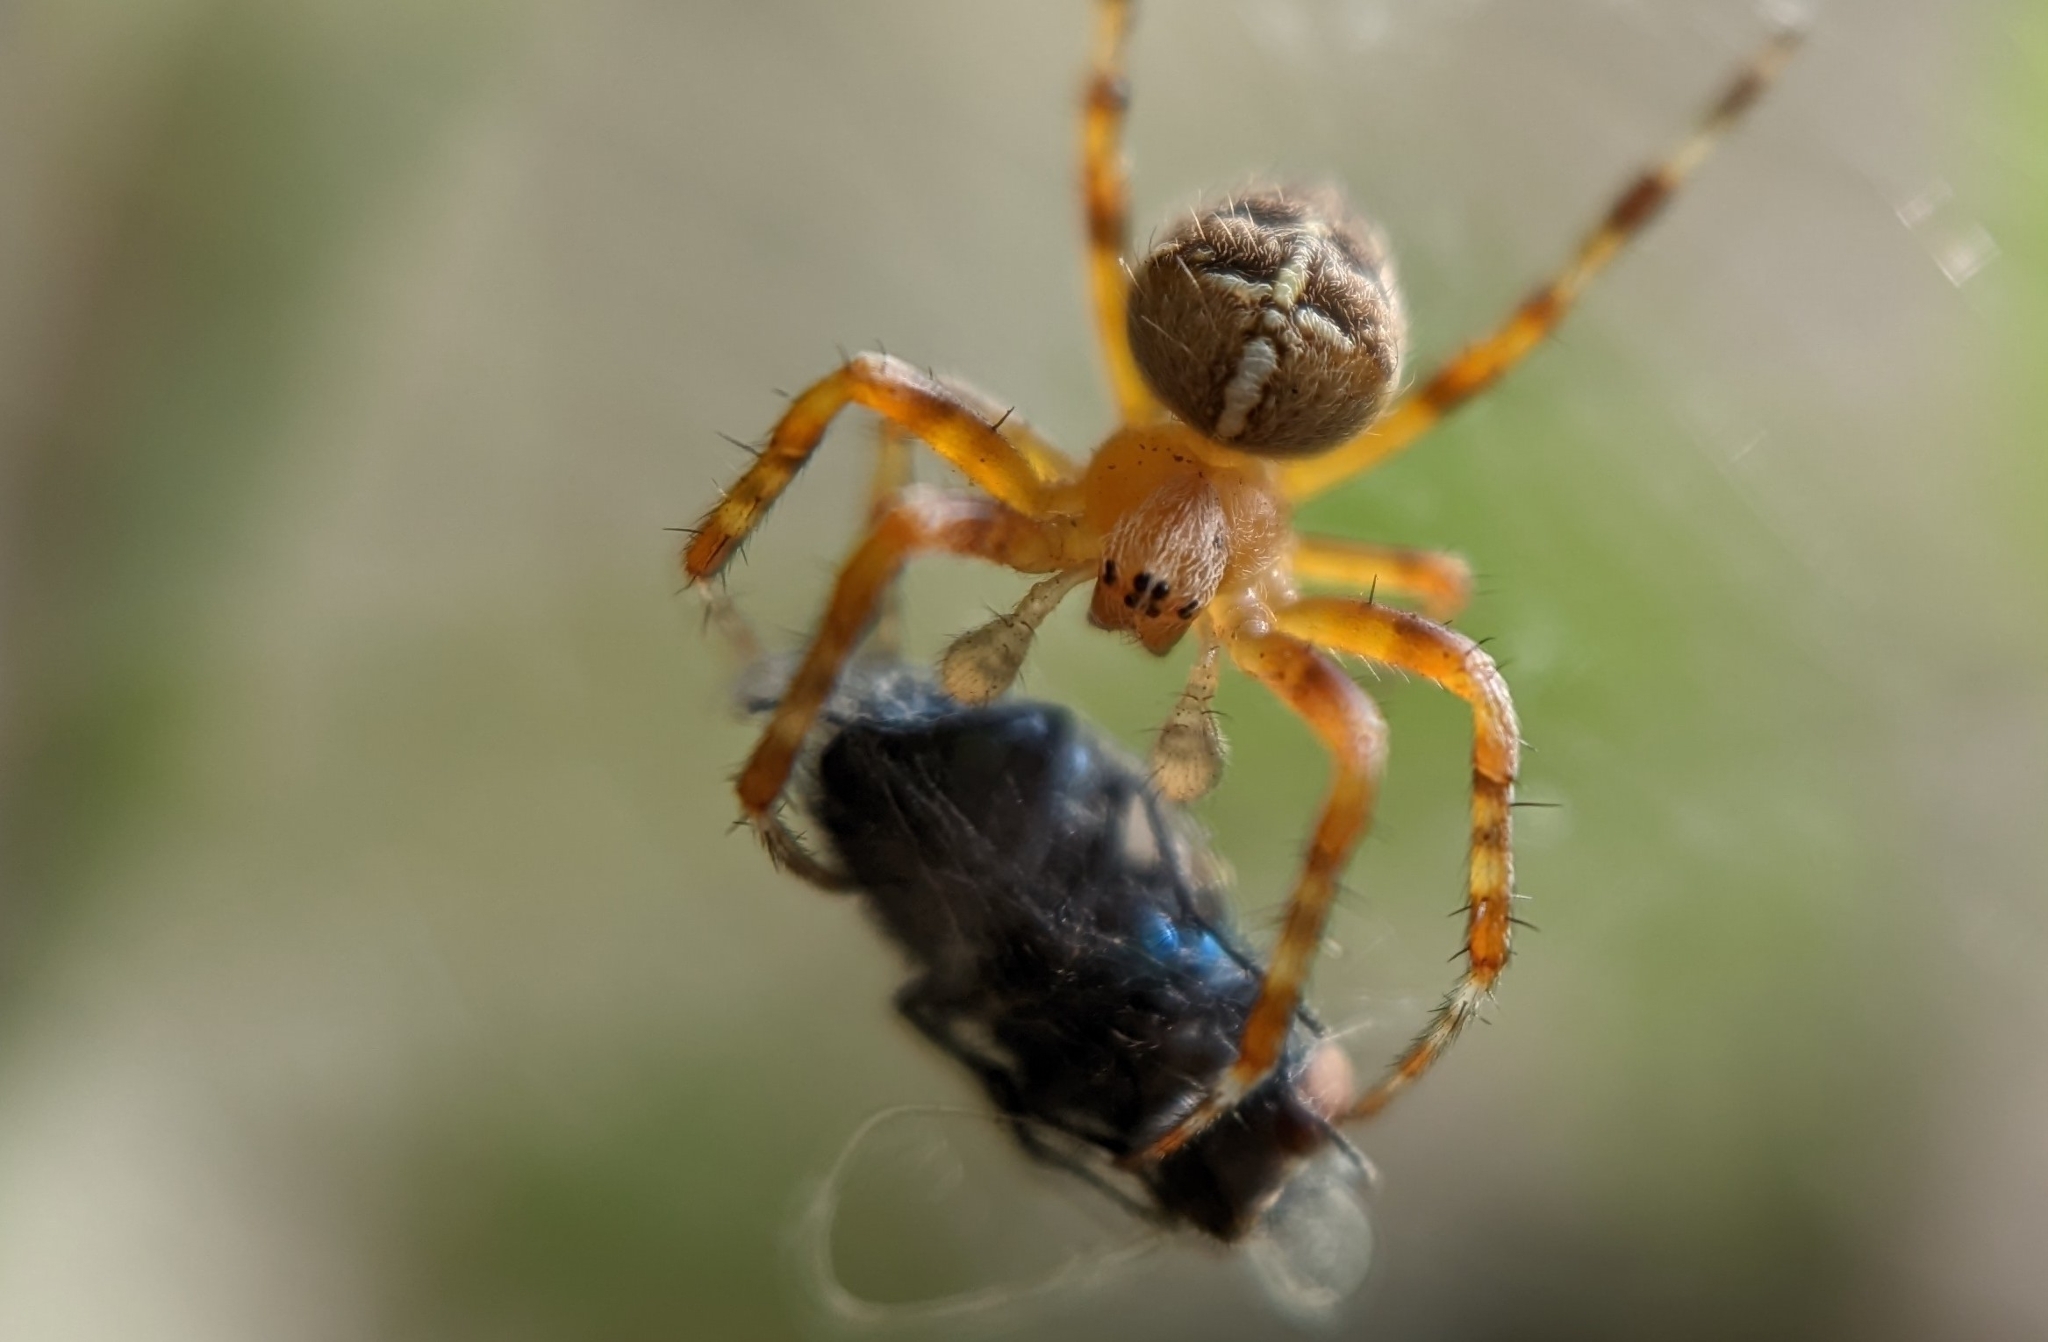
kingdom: Animalia
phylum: Arthropoda
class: Arachnida
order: Araneae
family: Araneidae
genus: Araneus
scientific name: Araneus diadematus
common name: Cross orbweaver
